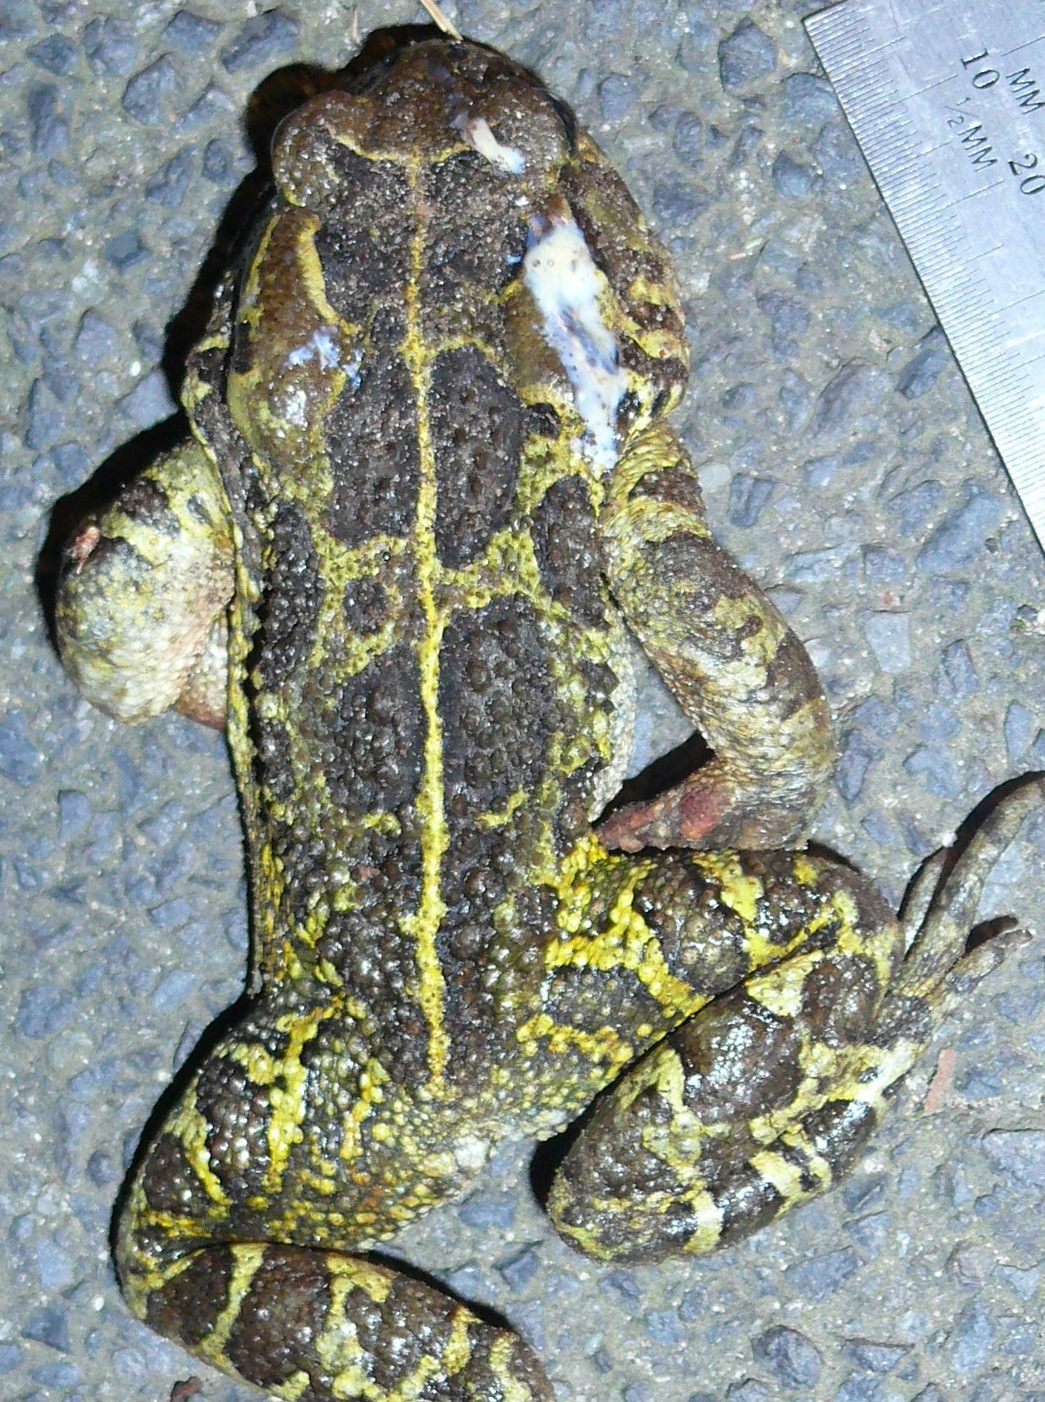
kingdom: Animalia
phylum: Chordata
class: Amphibia
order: Anura
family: Bufonidae
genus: Sclerophrys
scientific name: Sclerophrys pantherina
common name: Panther toad
